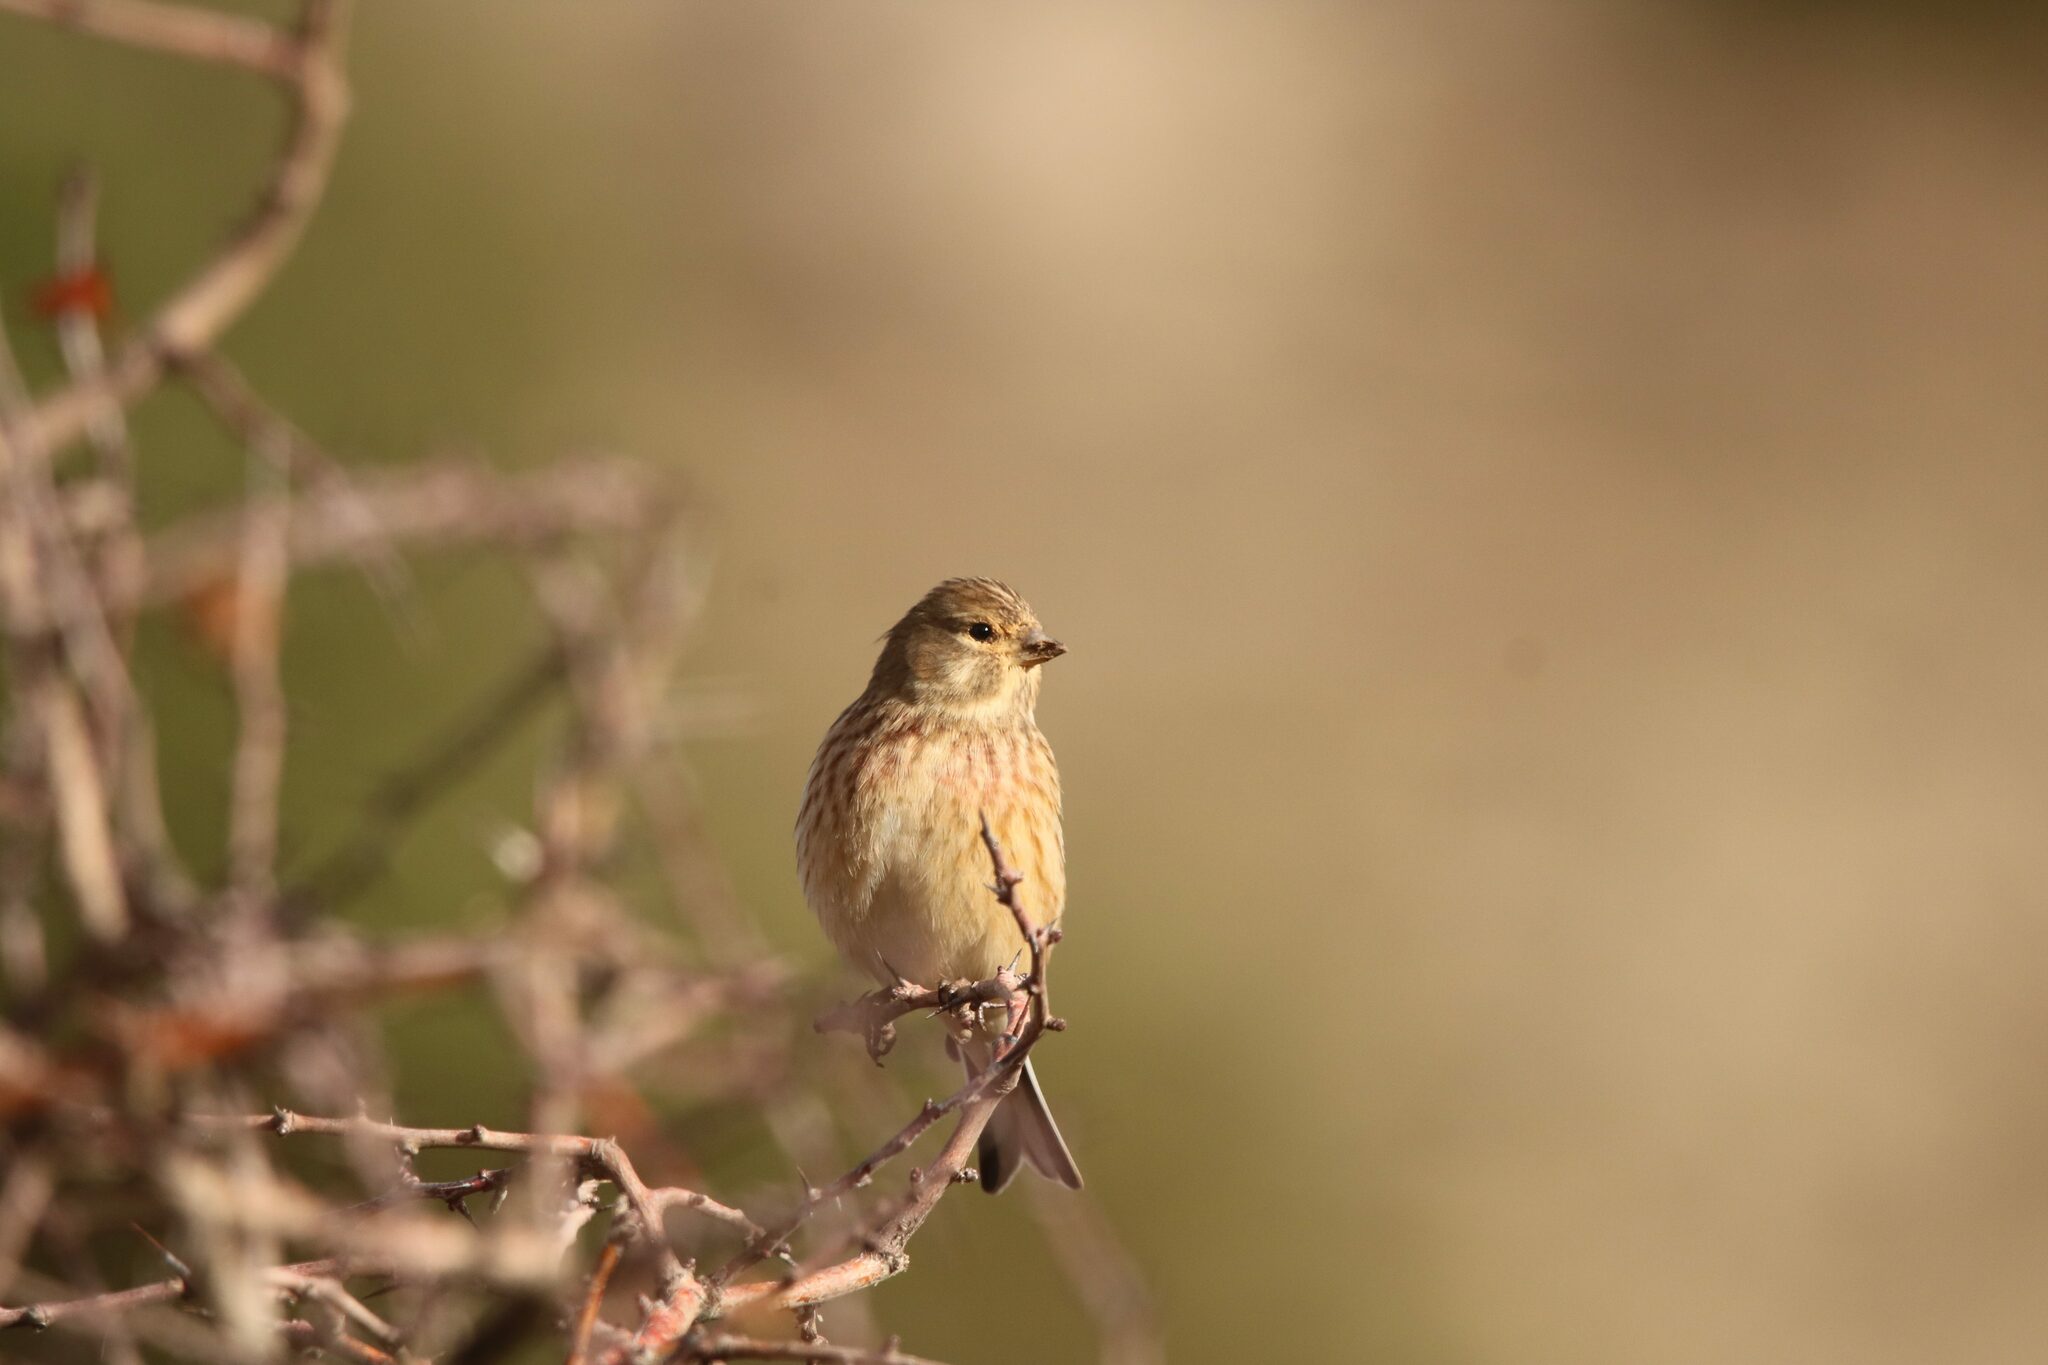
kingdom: Animalia
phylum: Chordata
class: Aves
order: Passeriformes
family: Fringillidae
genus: Linaria
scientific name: Linaria cannabina
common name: Common linnet
